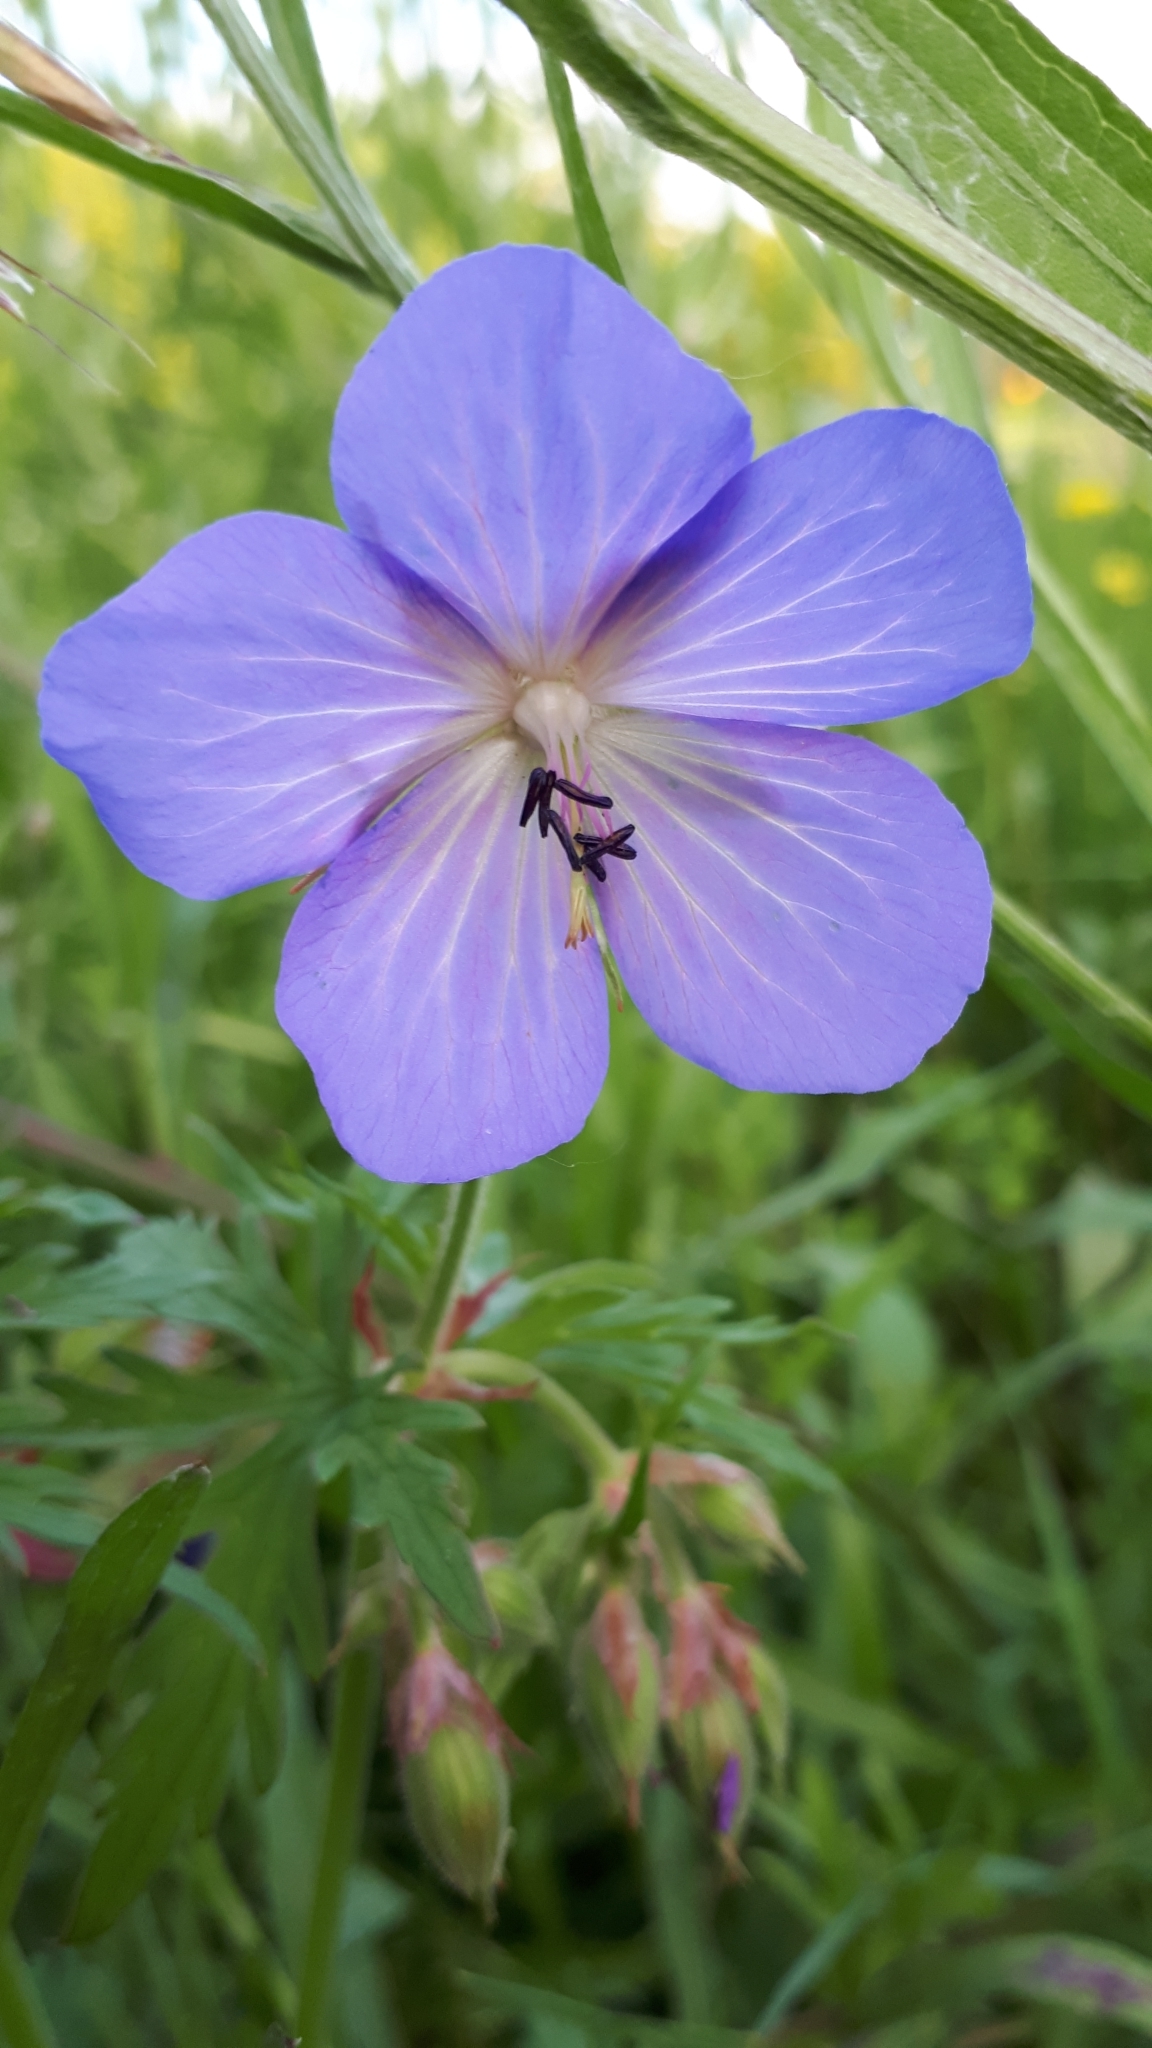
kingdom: Plantae
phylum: Tracheophyta
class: Magnoliopsida
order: Geraniales
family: Geraniaceae
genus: Geranium
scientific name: Geranium pratense
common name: Meadow crane's-bill
